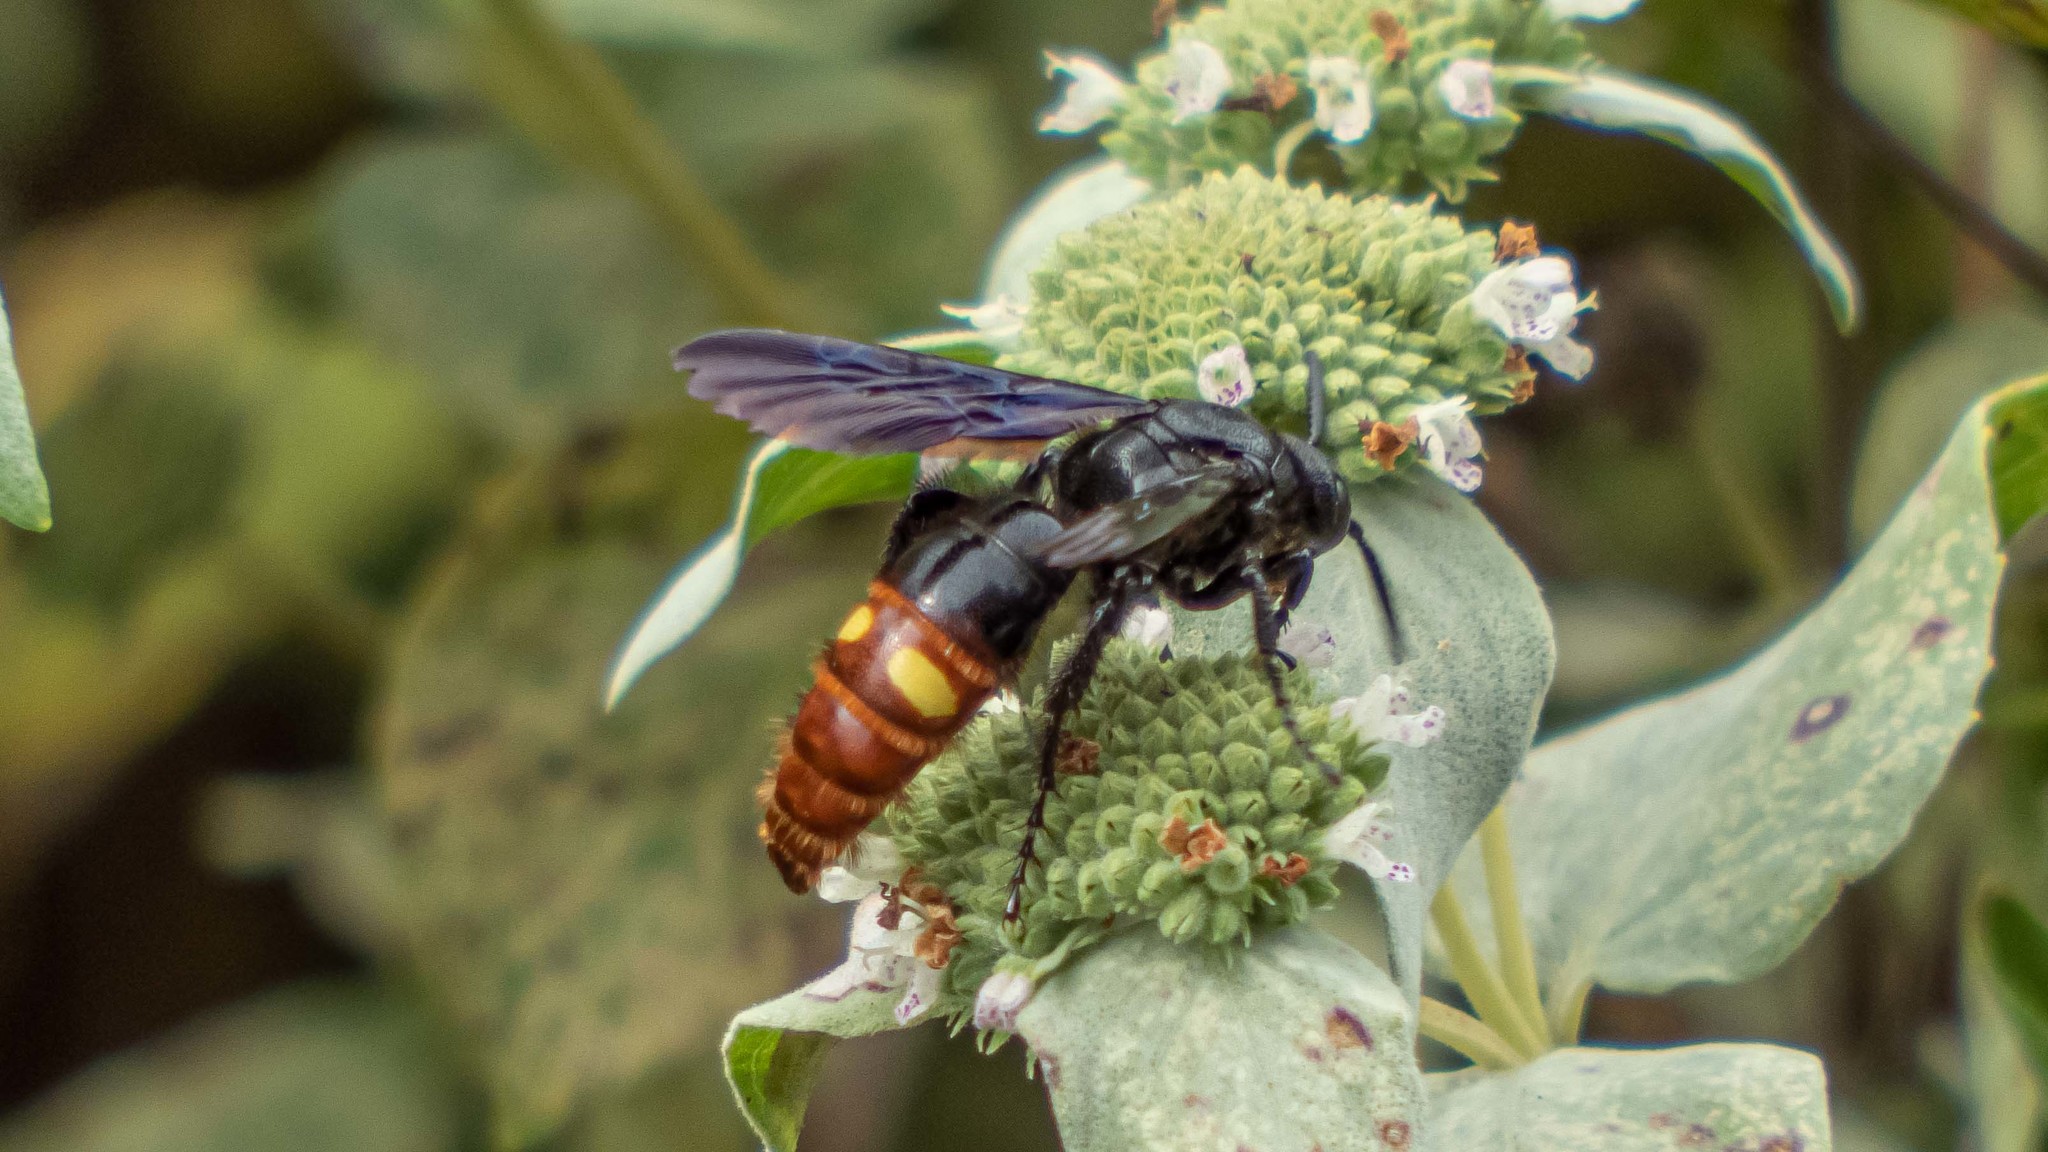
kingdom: Animalia
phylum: Arthropoda
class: Insecta
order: Hymenoptera
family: Scoliidae
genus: Scolia
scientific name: Scolia dubia
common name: Blue-winged scoliid wasp
